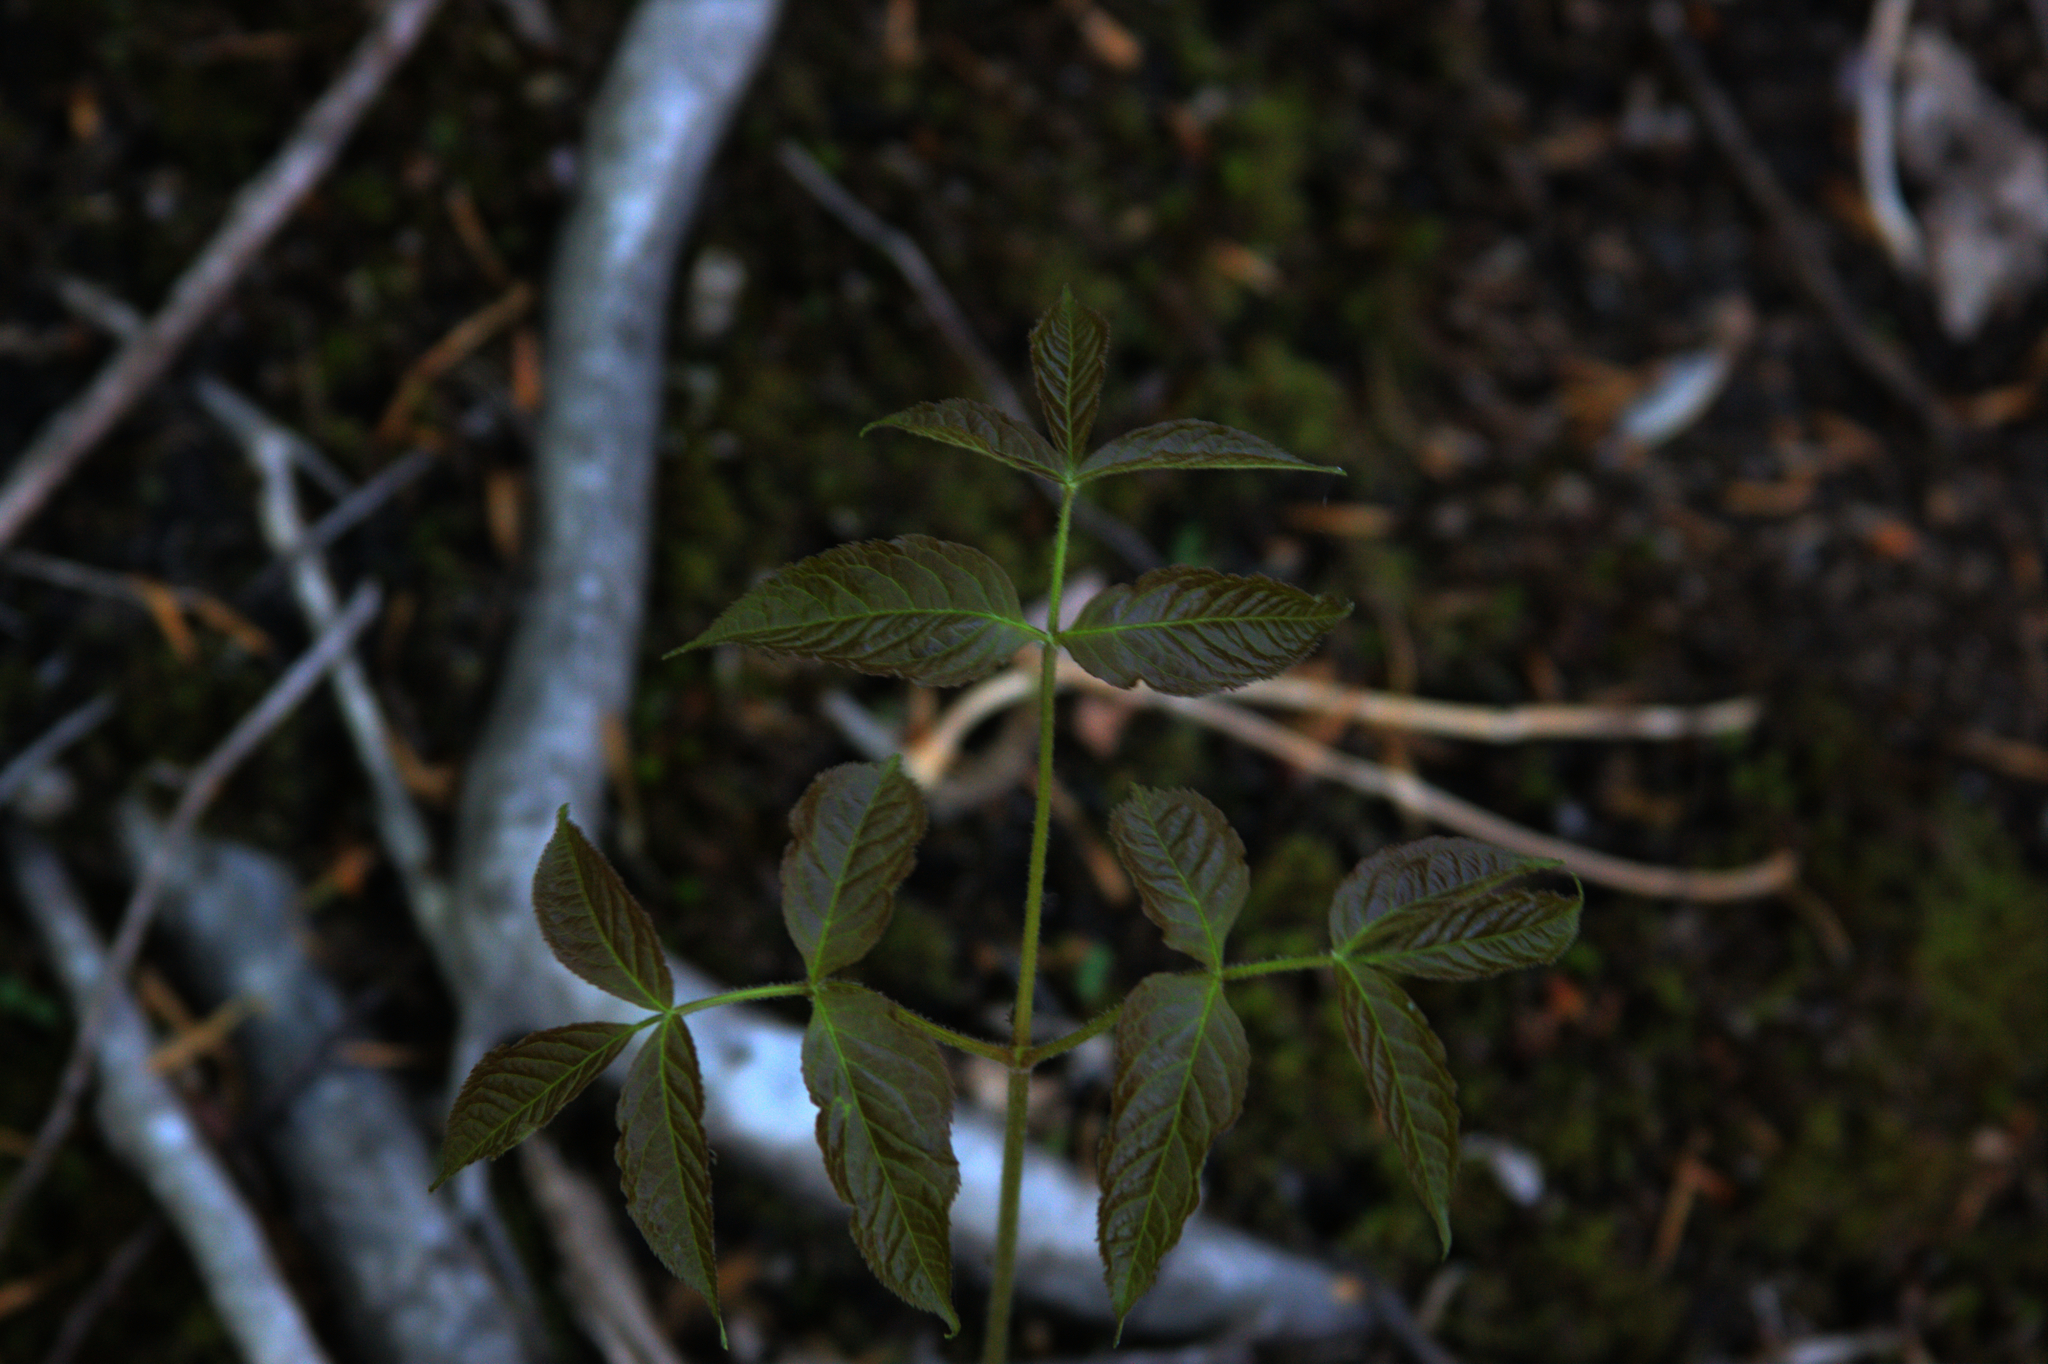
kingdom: Plantae
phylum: Tracheophyta
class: Magnoliopsida
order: Apiales
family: Araliaceae
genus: Aralia
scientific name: Aralia nudicaulis
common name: Wild sarsaparilla
